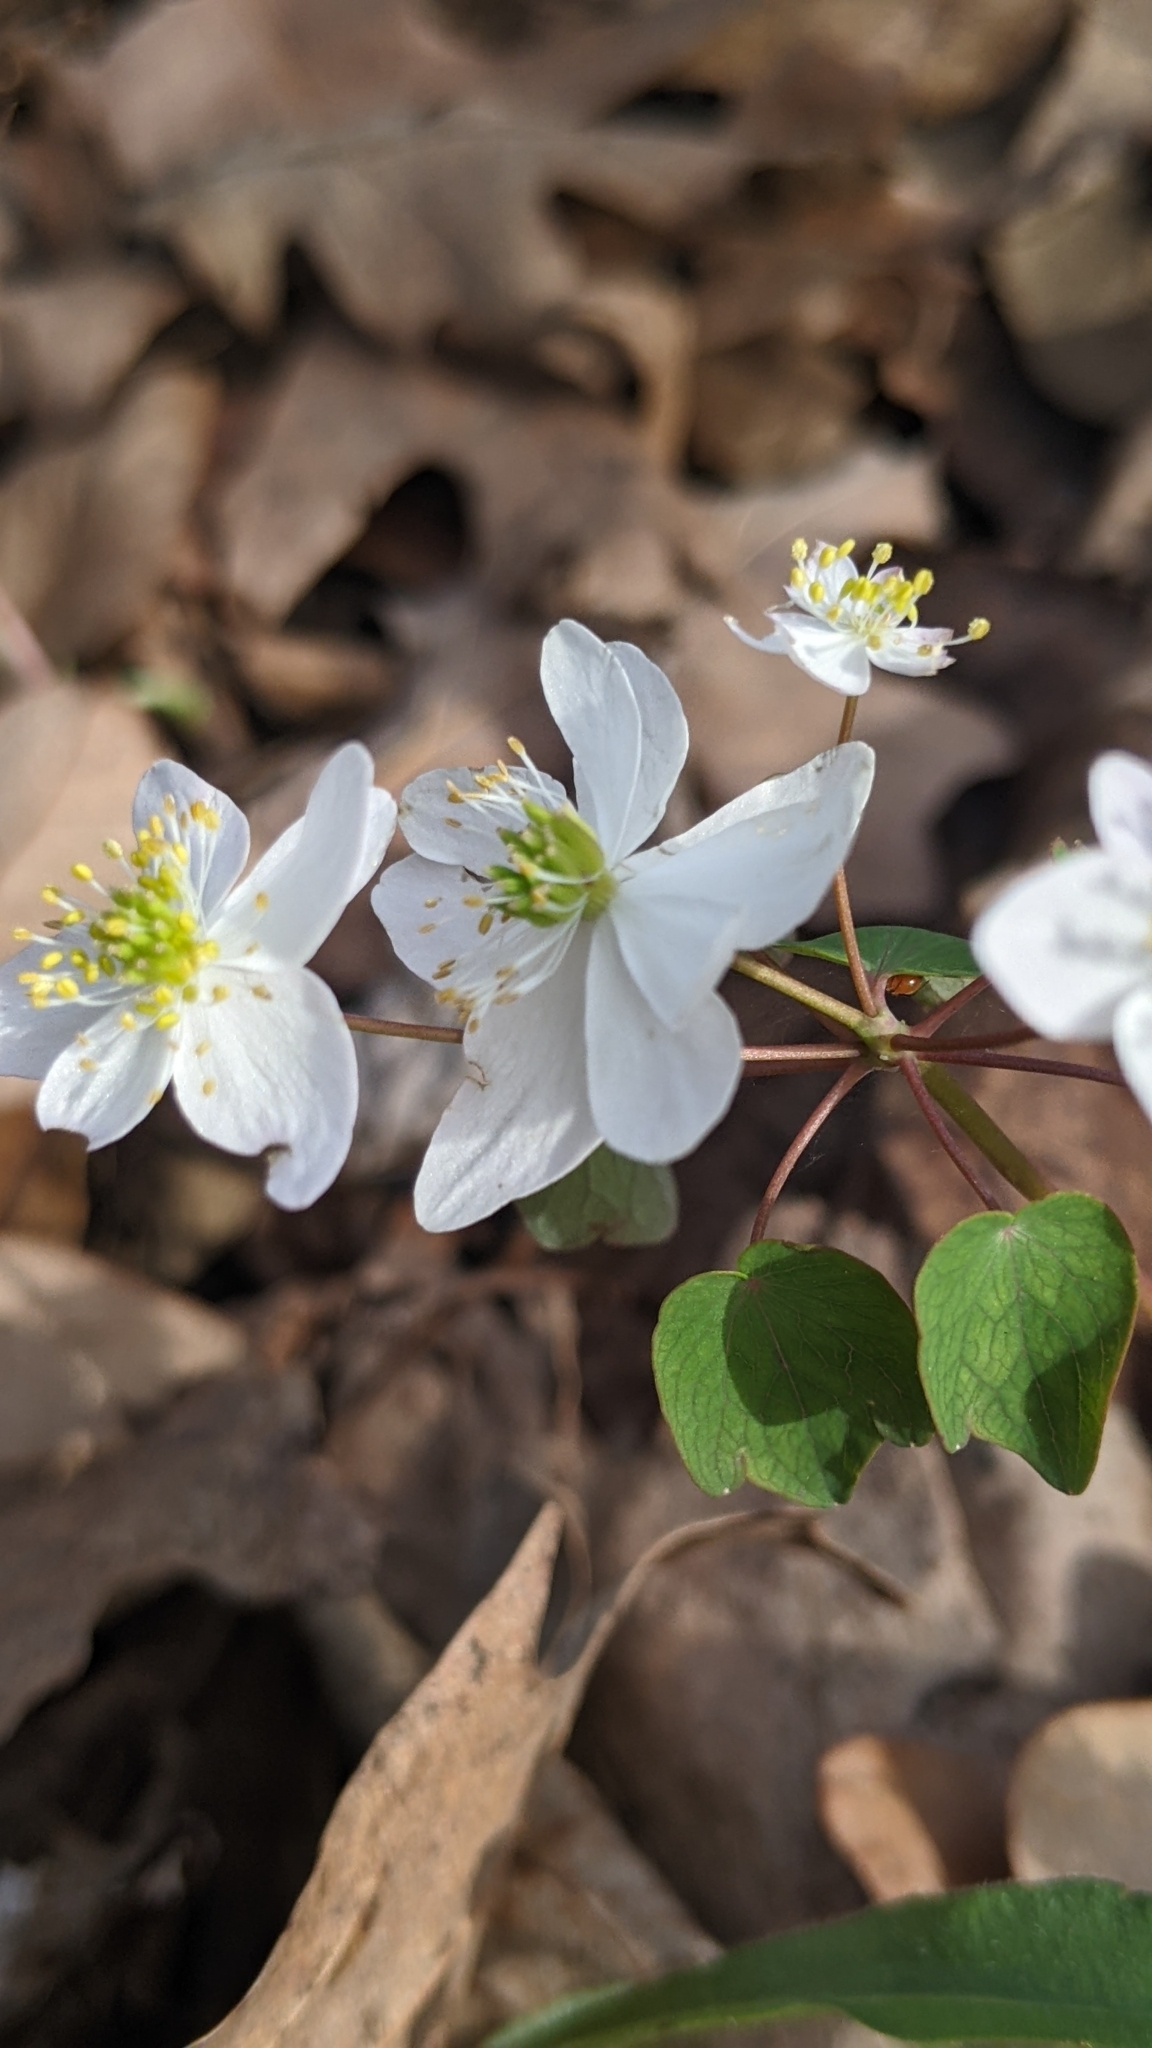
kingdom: Plantae
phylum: Tracheophyta
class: Magnoliopsida
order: Ranunculales
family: Ranunculaceae
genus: Thalictrum
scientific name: Thalictrum thalictroides
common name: Rue-anemone
